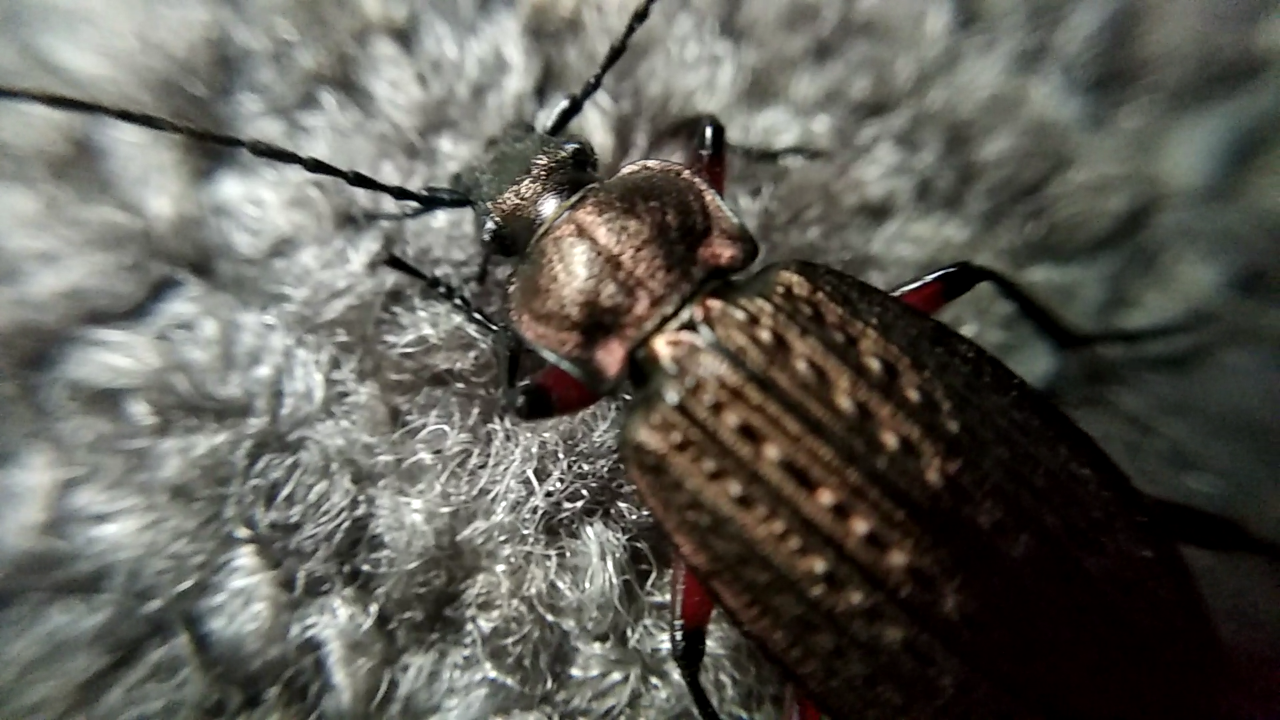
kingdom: Animalia
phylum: Arthropoda
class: Insecta
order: Coleoptera
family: Carabidae
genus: Carabus
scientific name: Carabus granulatus
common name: Granulate ground beetle
